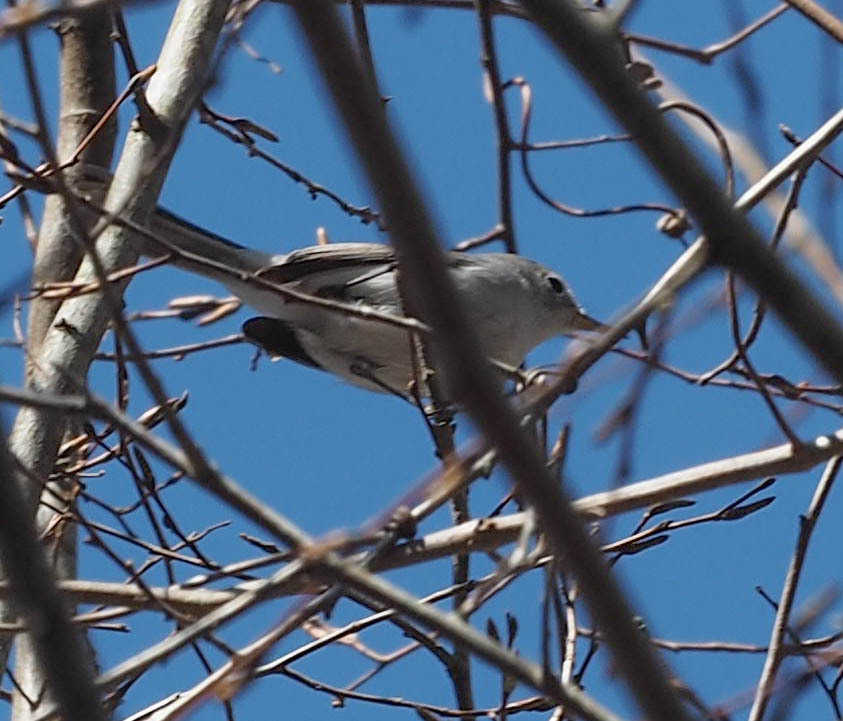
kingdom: Animalia
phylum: Chordata
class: Aves
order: Passeriformes
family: Polioptilidae
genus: Polioptila
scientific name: Polioptila caerulea
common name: Blue-gray gnatcatcher
